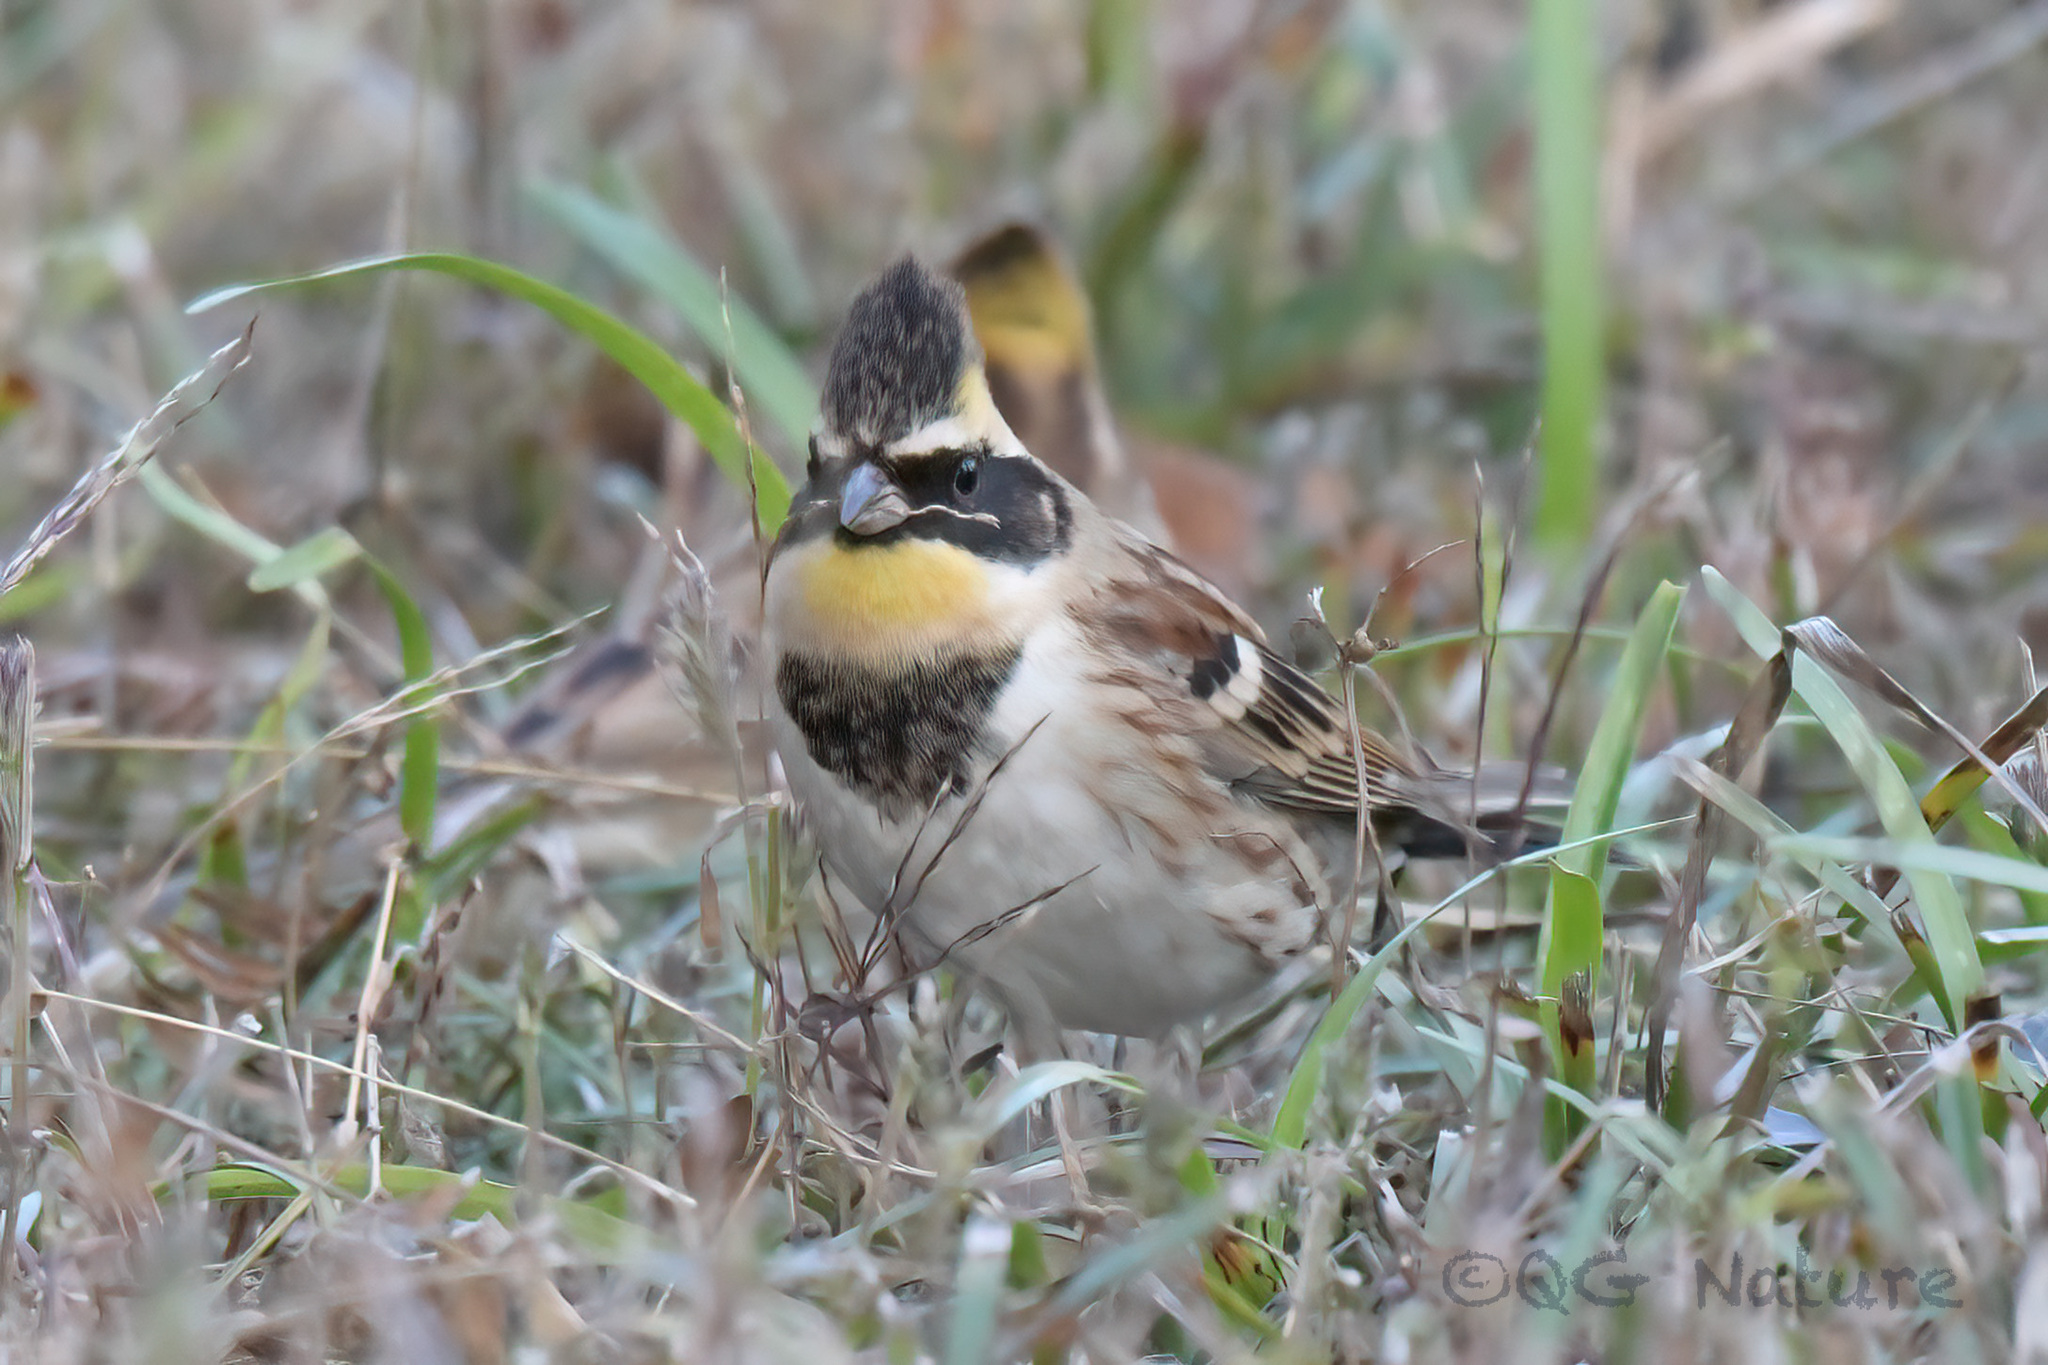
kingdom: Animalia
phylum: Chordata
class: Aves
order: Passeriformes
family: Emberizidae
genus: Emberiza
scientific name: Emberiza elegans
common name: Yellow-throated bunting
